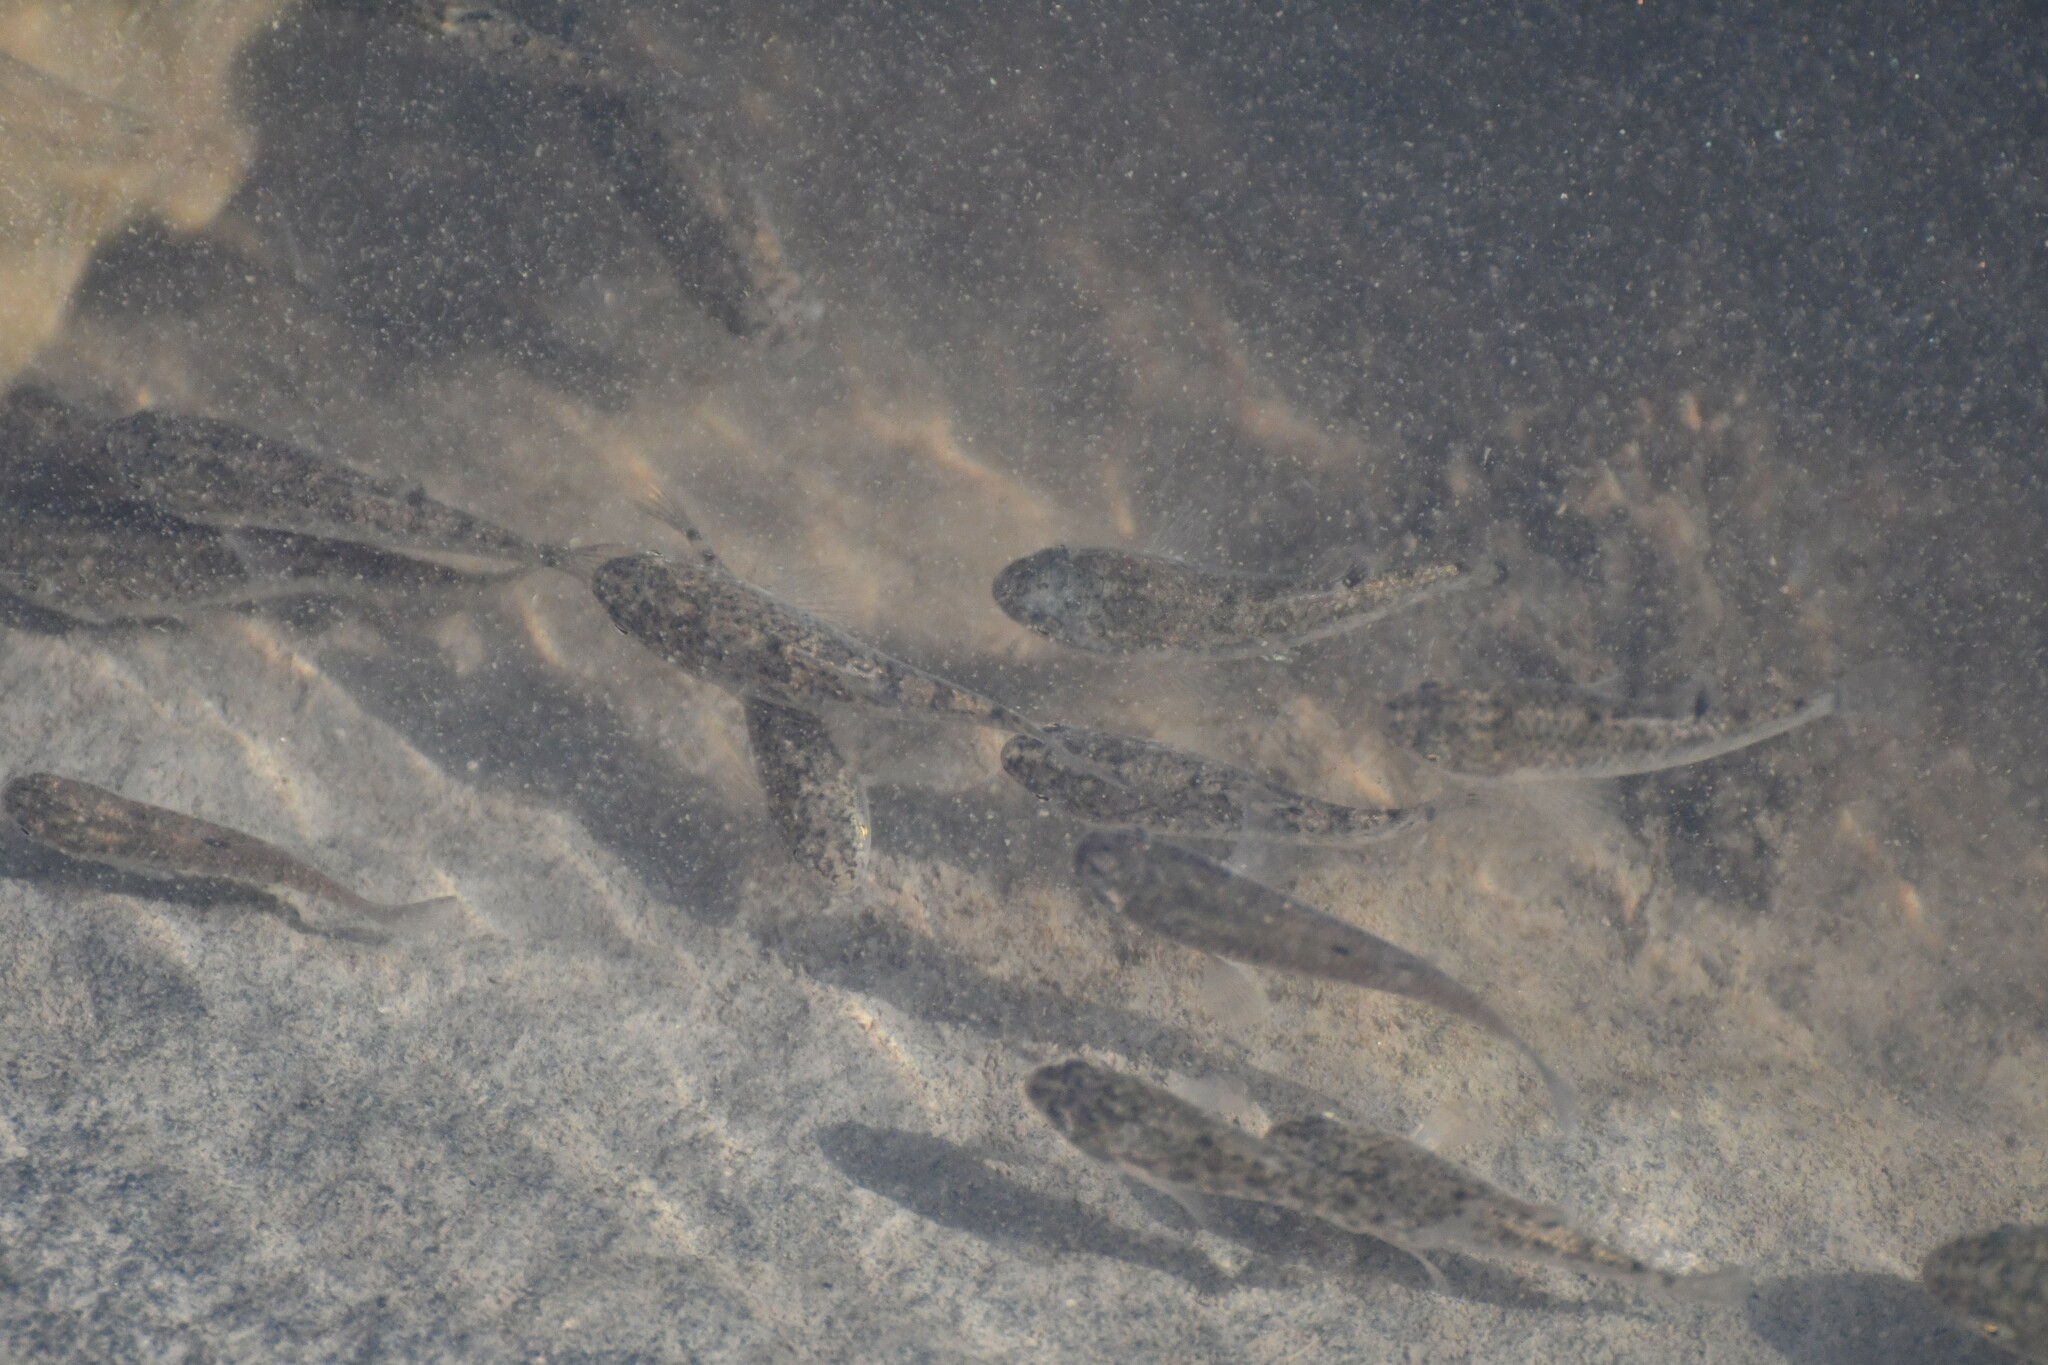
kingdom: Animalia
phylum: Chordata
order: Cyprinodontiformes
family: Cyprinodontidae
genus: Cyprinodon
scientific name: Cyprinodon variegatus
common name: Sheepshead minnow
